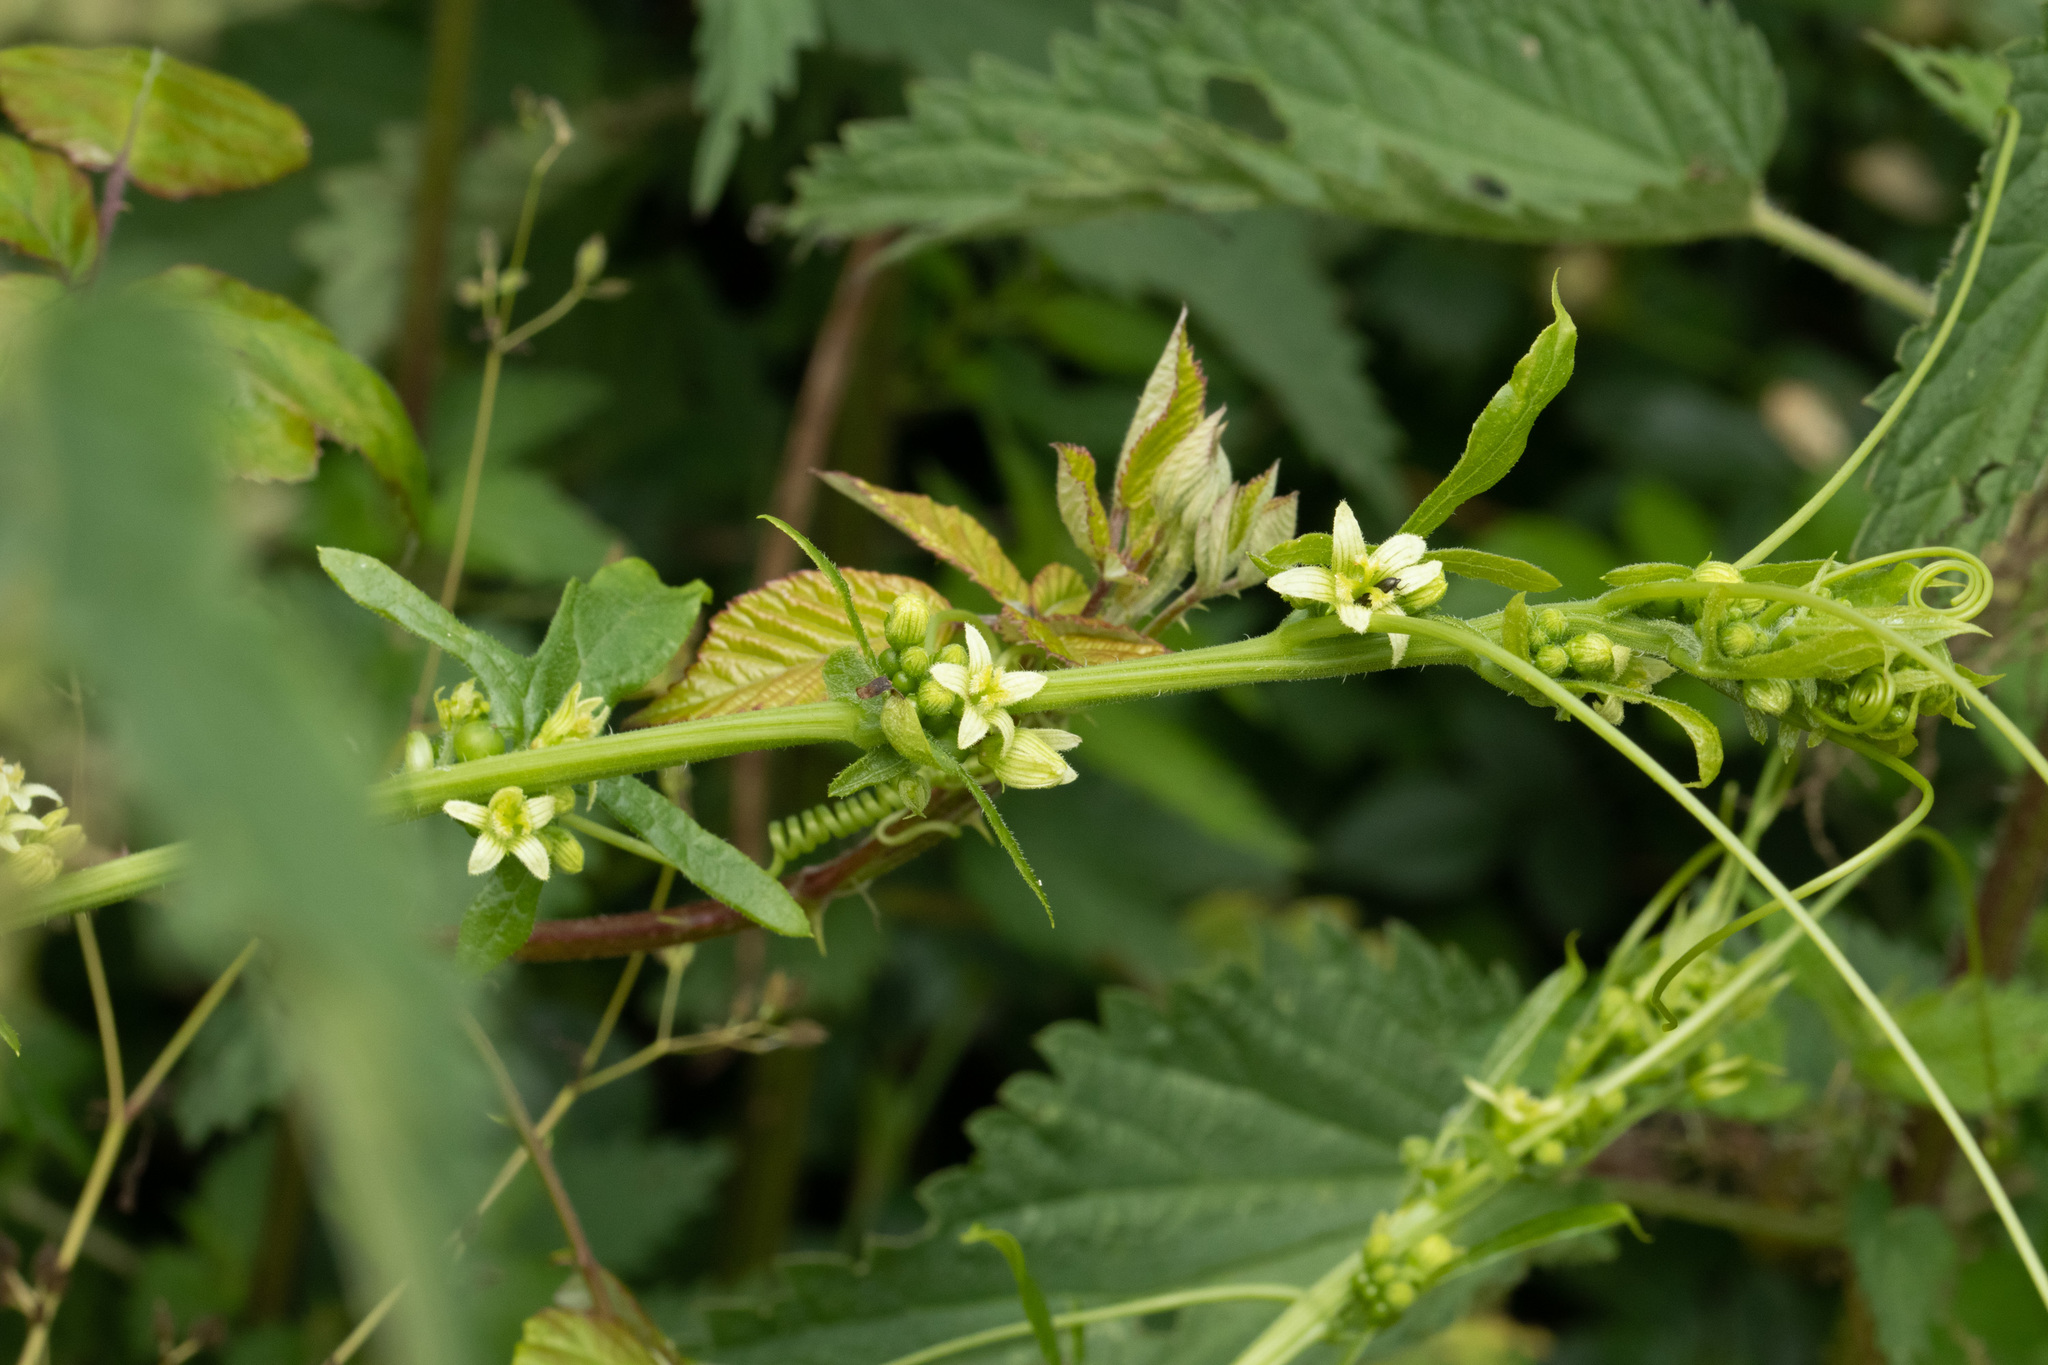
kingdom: Plantae
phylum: Tracheophyta
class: Magnoliopsida
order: Cucurbitales
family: Cucurbitaceae
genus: Bryonia
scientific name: Bryonia cretica
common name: Cretan bryony
